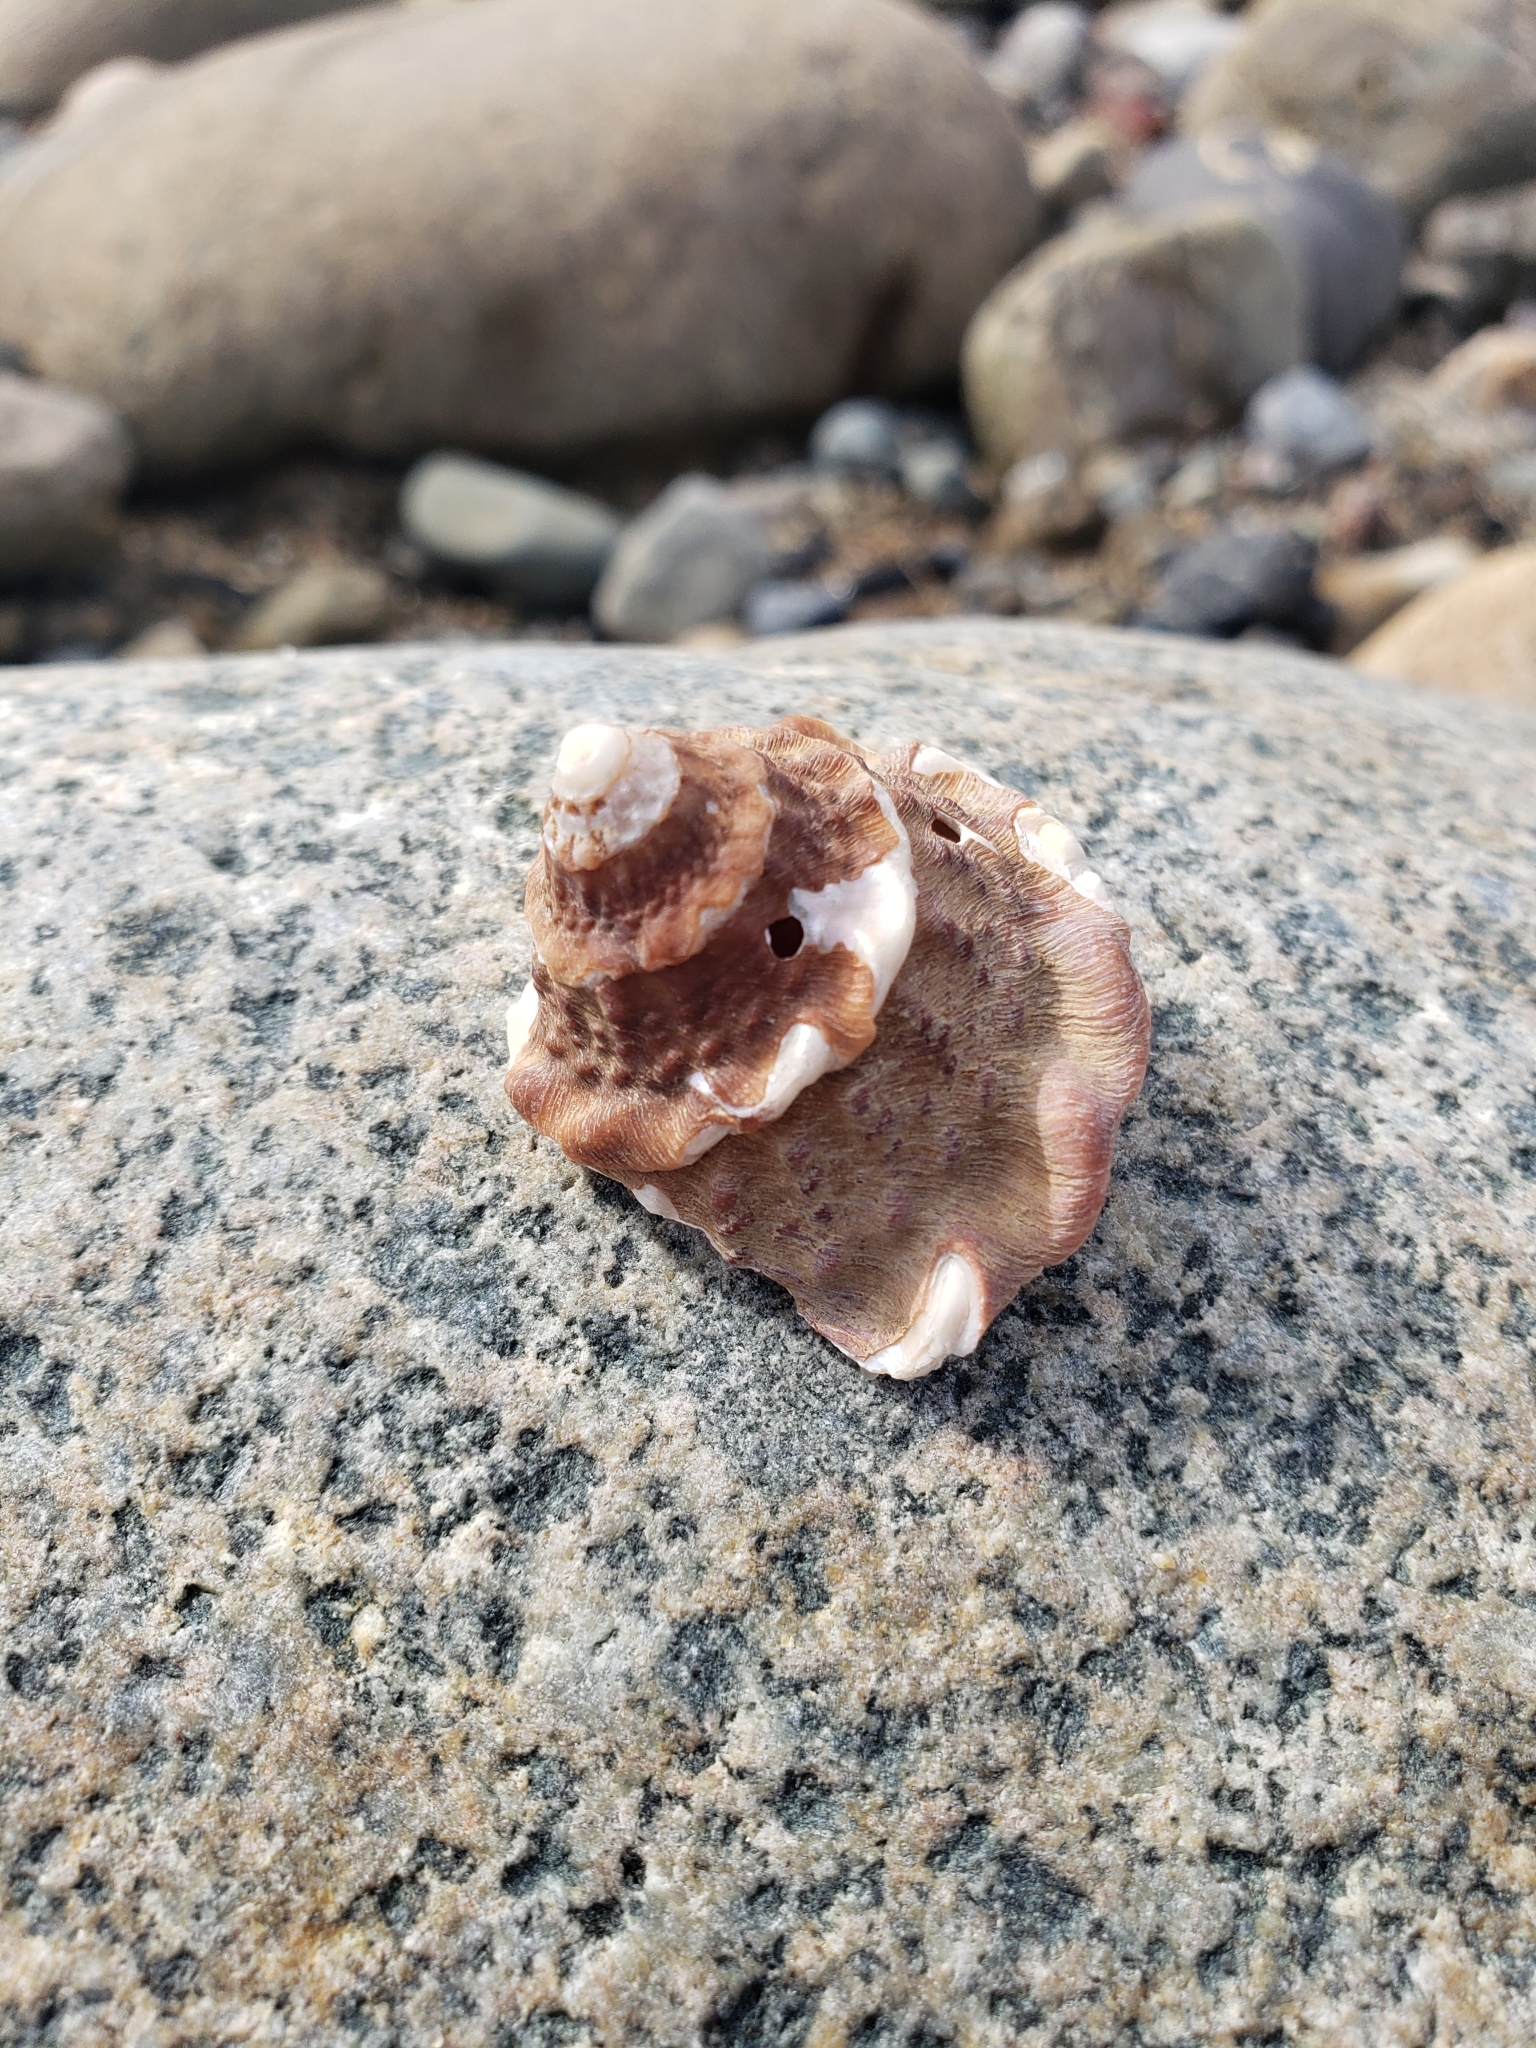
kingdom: Animalia
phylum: Mollusca
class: Gastropoda
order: Trochida
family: Turbinidae
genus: Megastraea
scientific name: Megastraea undosa
